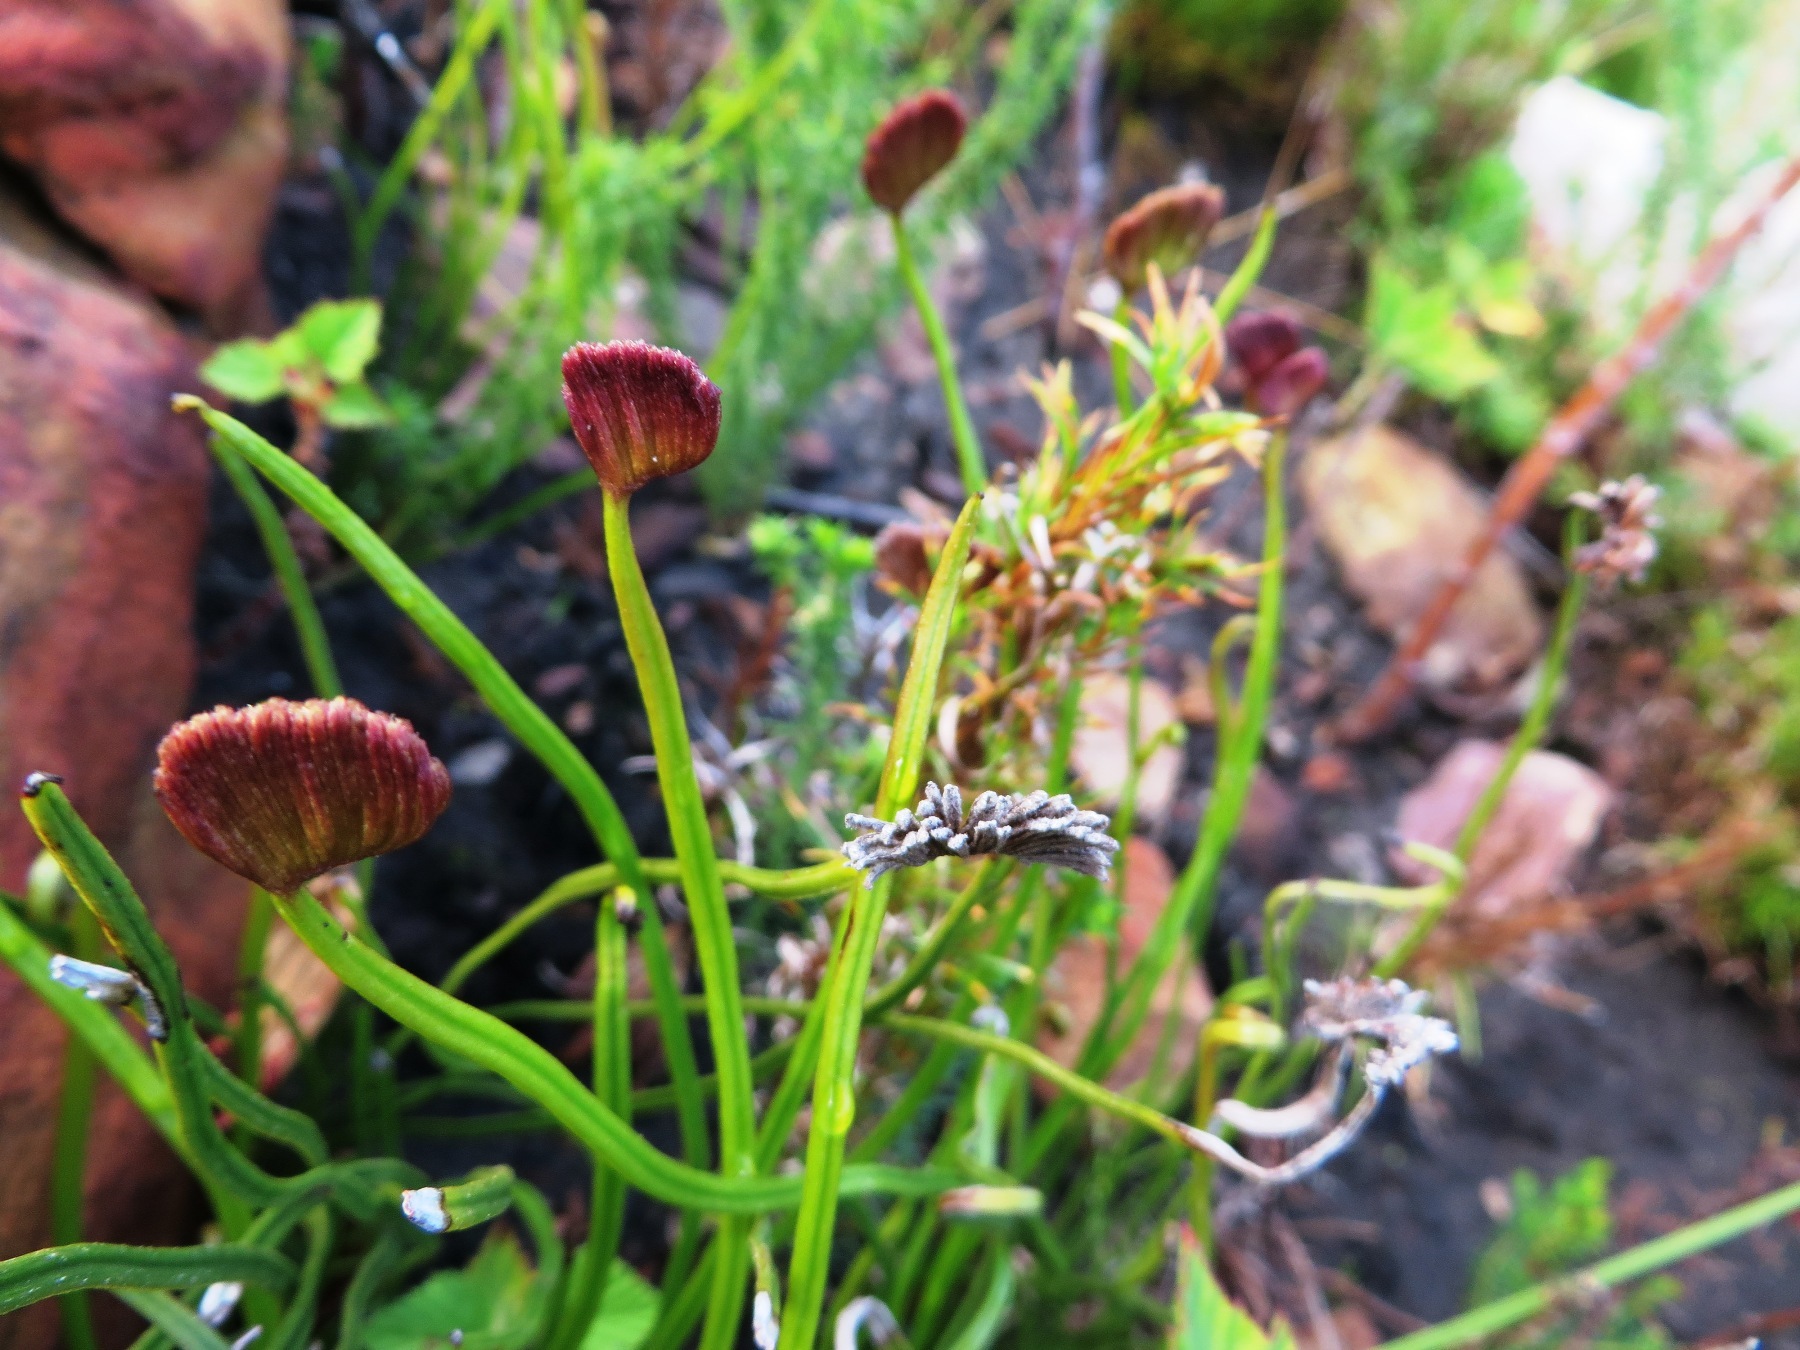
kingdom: Plantae
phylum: Tracheophyta
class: Polypodiopsida
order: Schizaeales
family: Schizaeaceae
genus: Schizaea
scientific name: Schizaea pectinata
